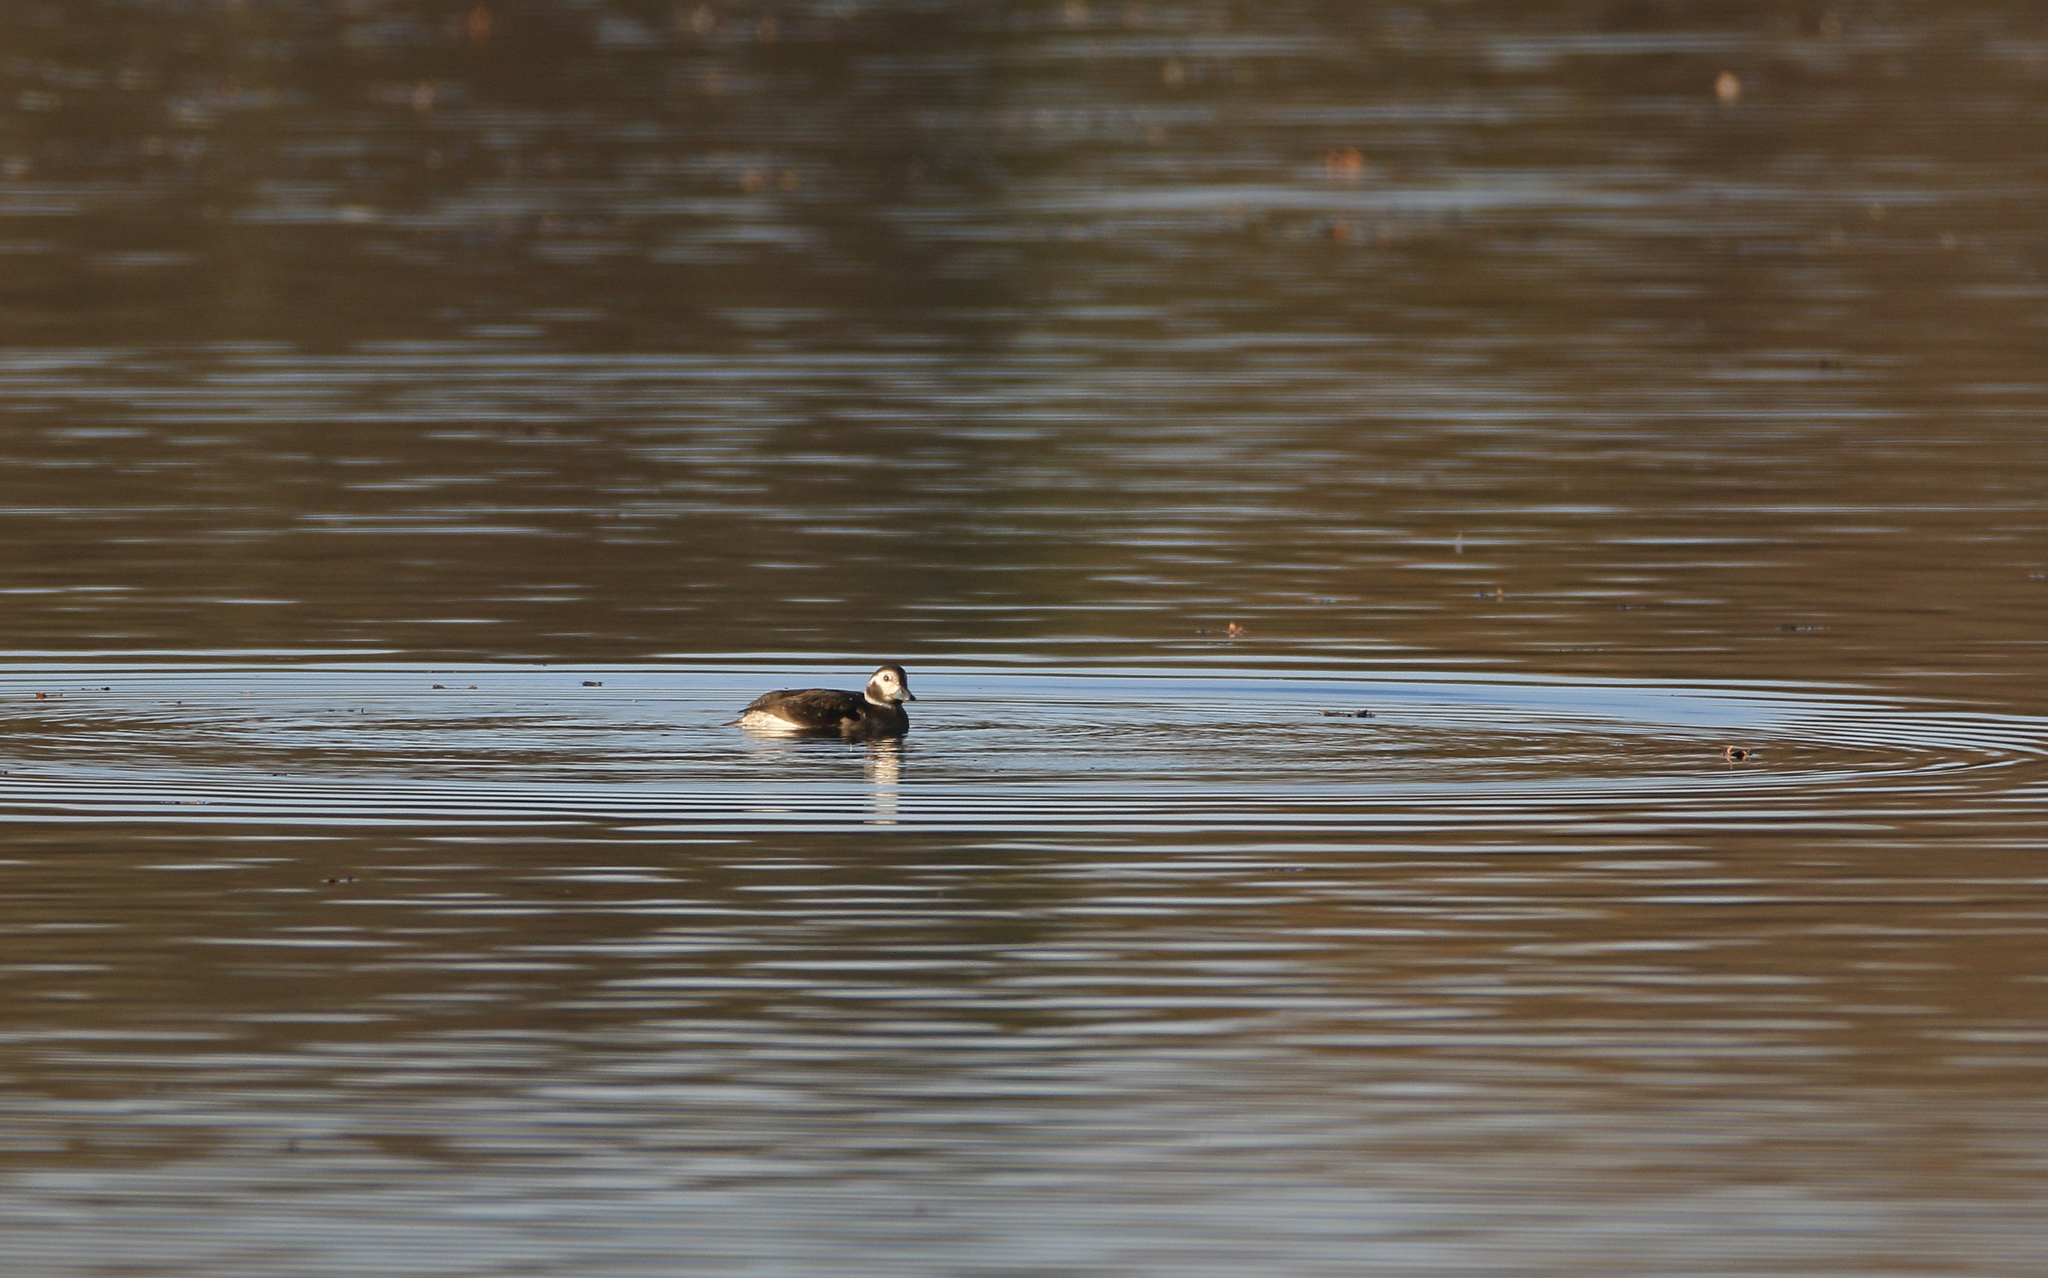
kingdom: Animalia
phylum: Chordata
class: Aves
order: Anseriformes
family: Anatidae
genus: Clangula
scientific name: Clangula hyemalis
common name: Long-tailed duck
